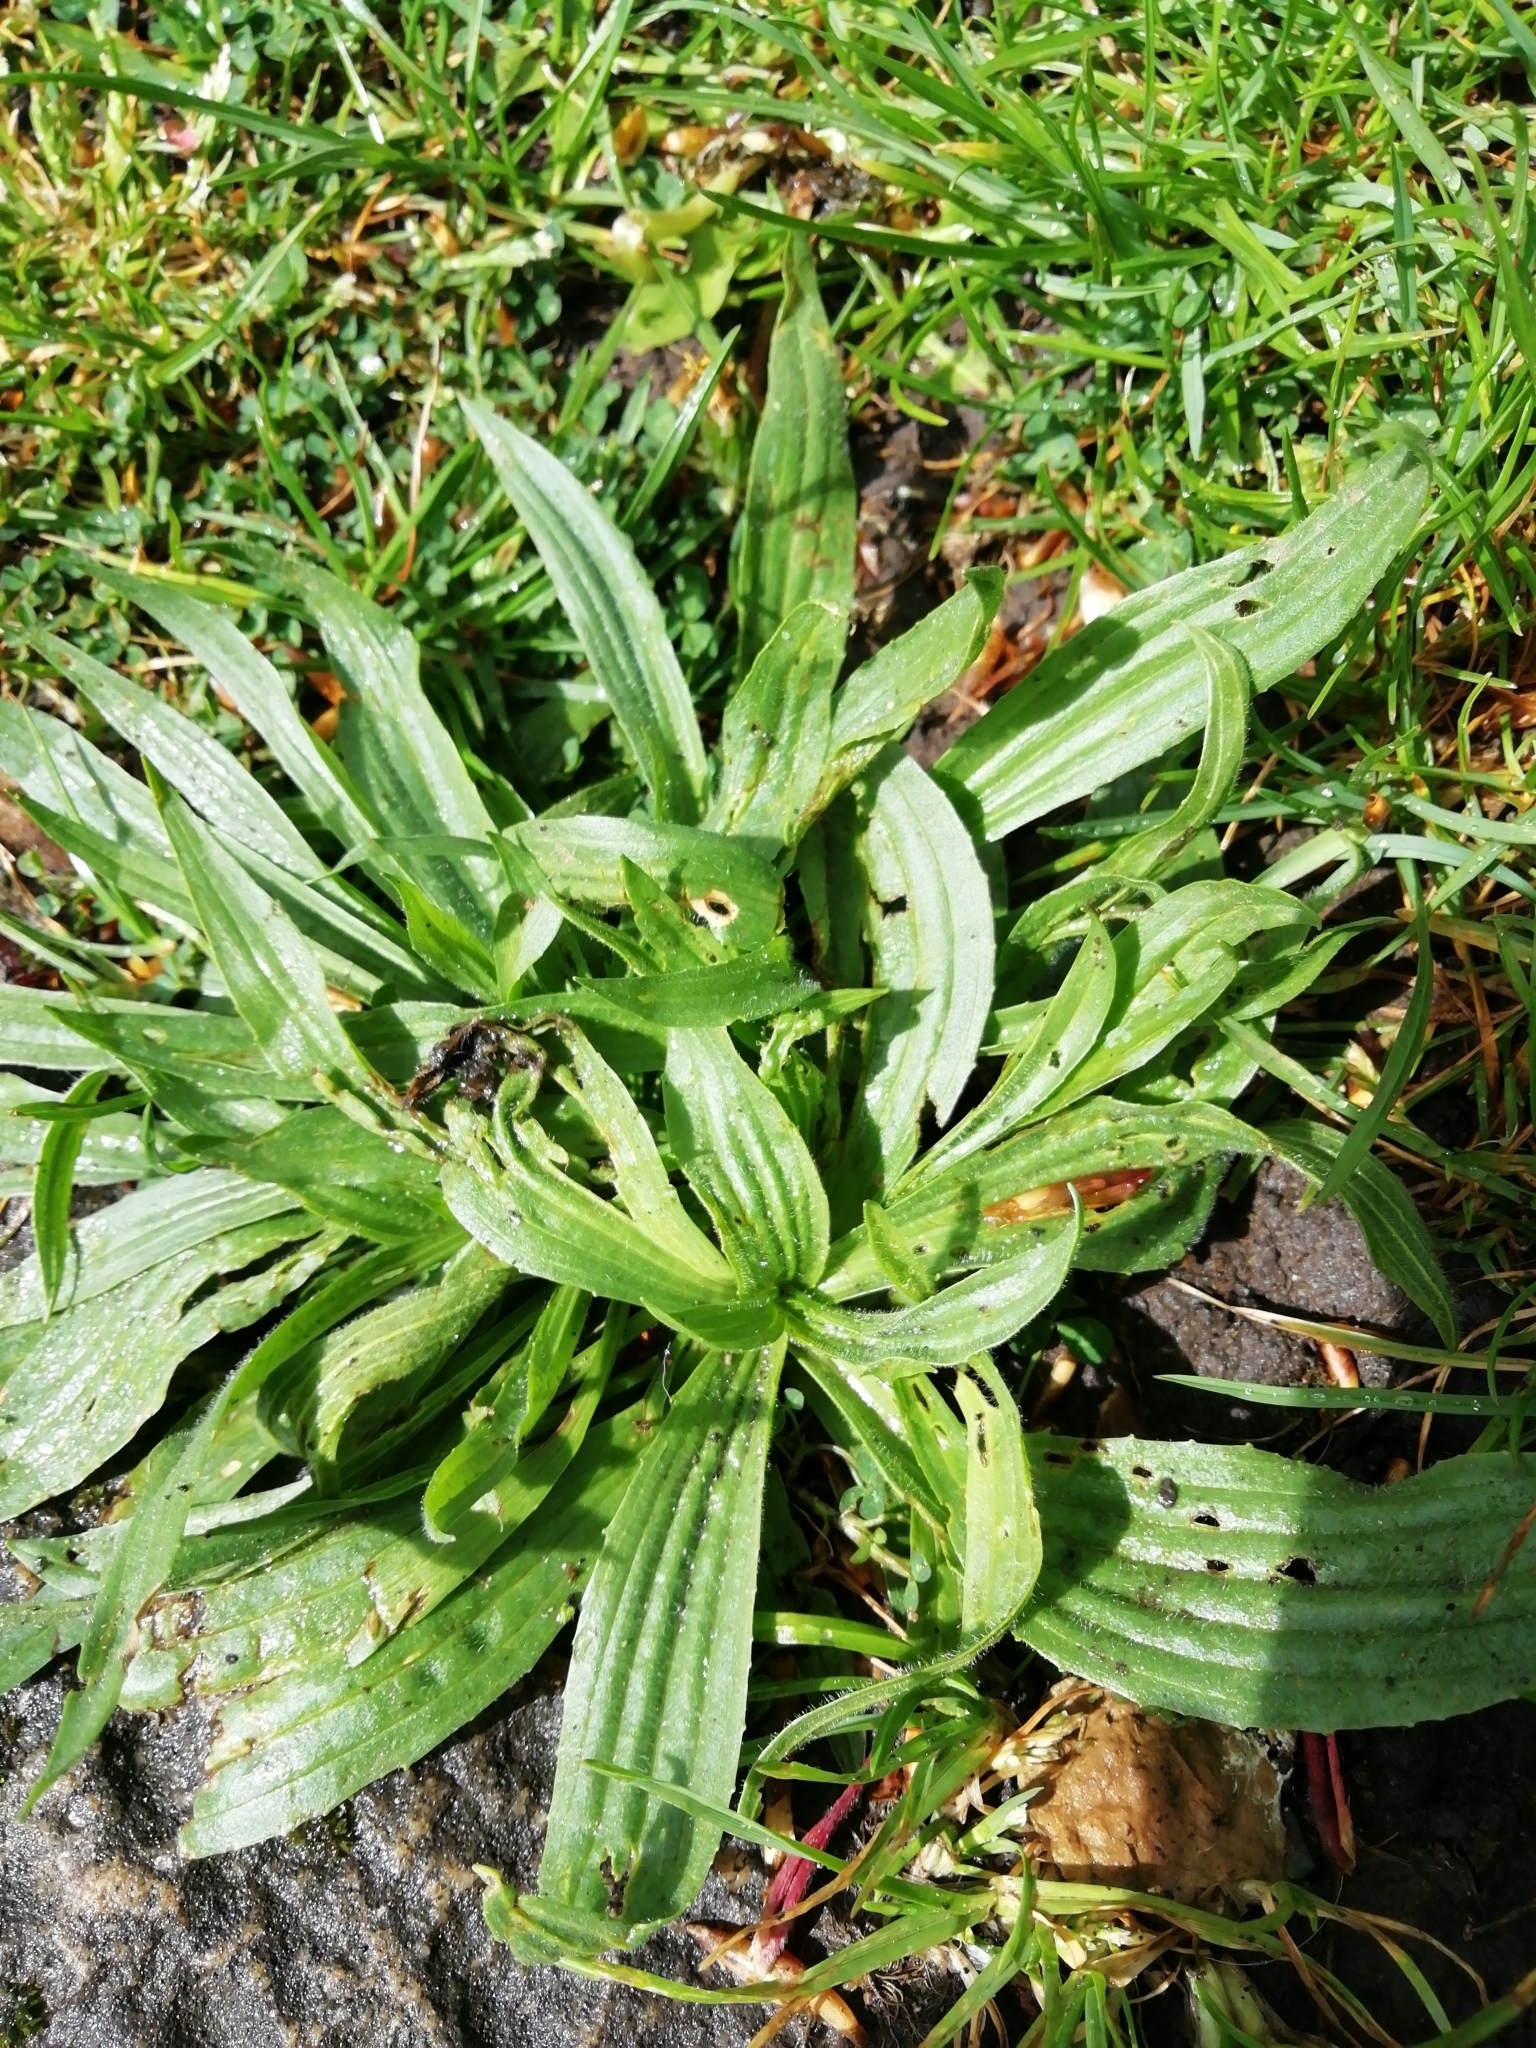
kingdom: Plantae
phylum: Tracheophyta
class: Magnoliopsida
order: Lamiales
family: Plantaginaceae
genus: Plantago
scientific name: Plantago lanceolata
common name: Ribwort plantain
